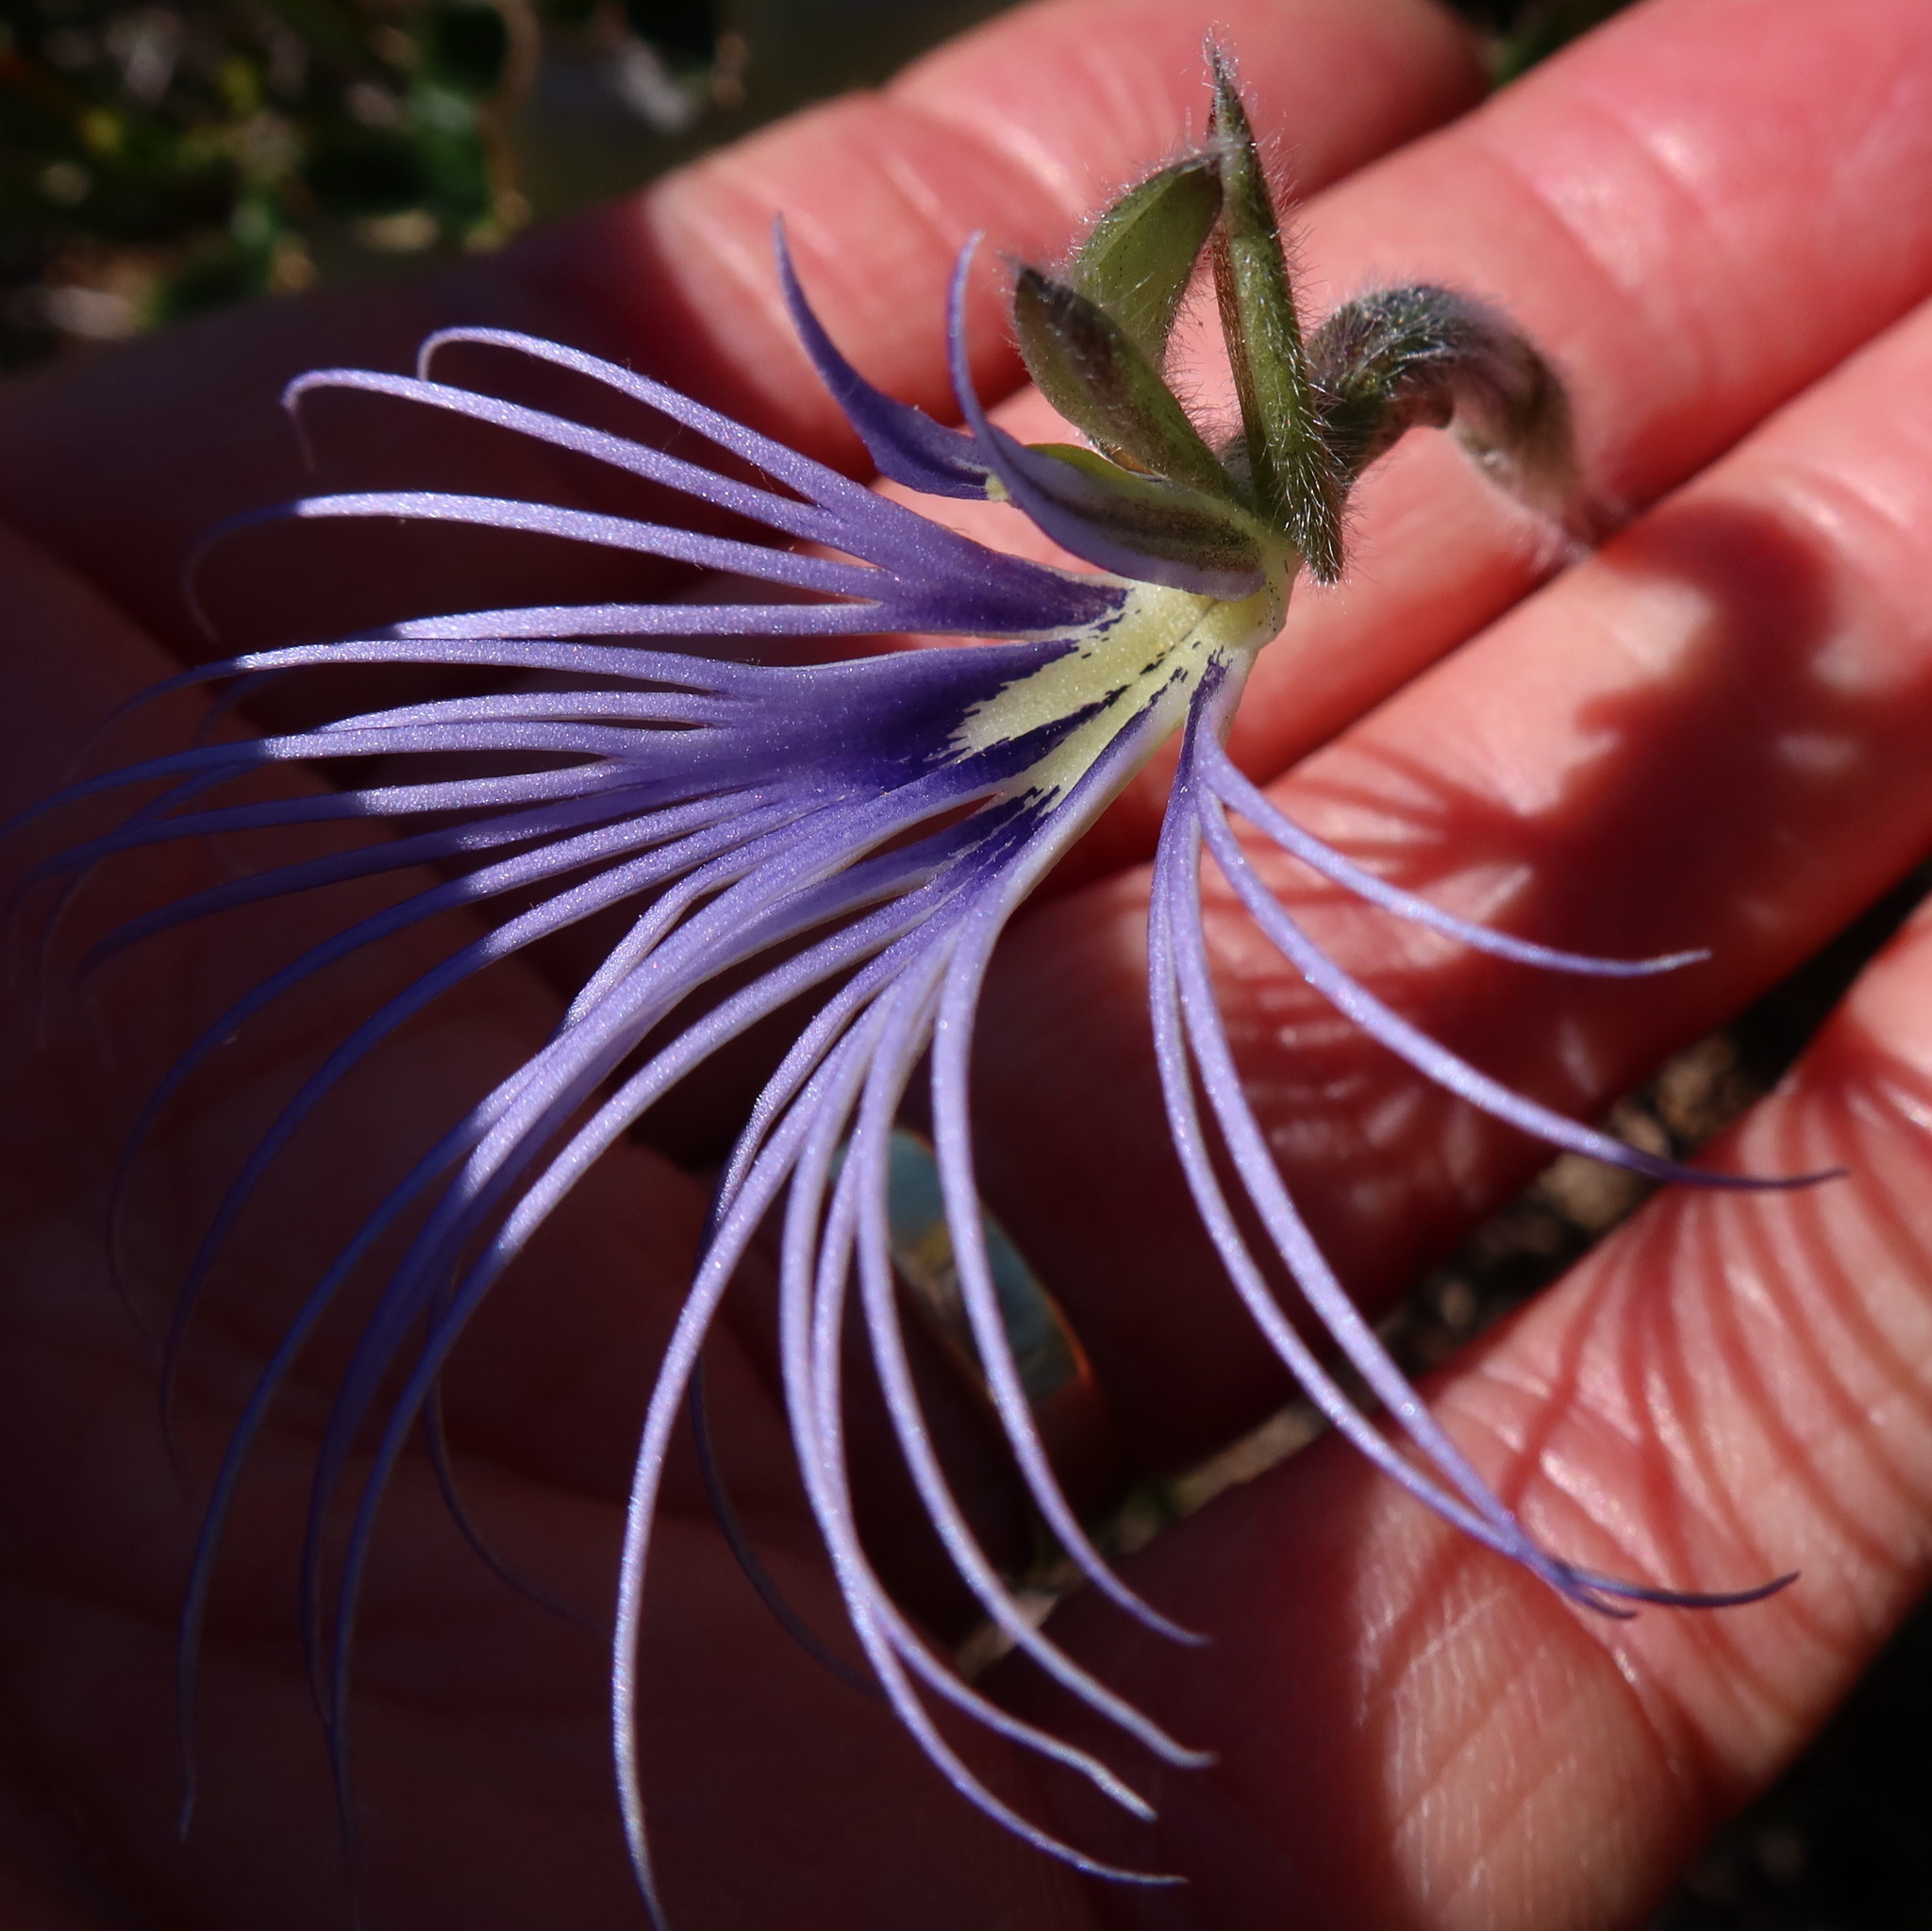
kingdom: Plantae
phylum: Tracheophyta
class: Liliopsida
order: Asparagales
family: Orchidaceae
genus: Holothrix
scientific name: Holothrix burmanniana
